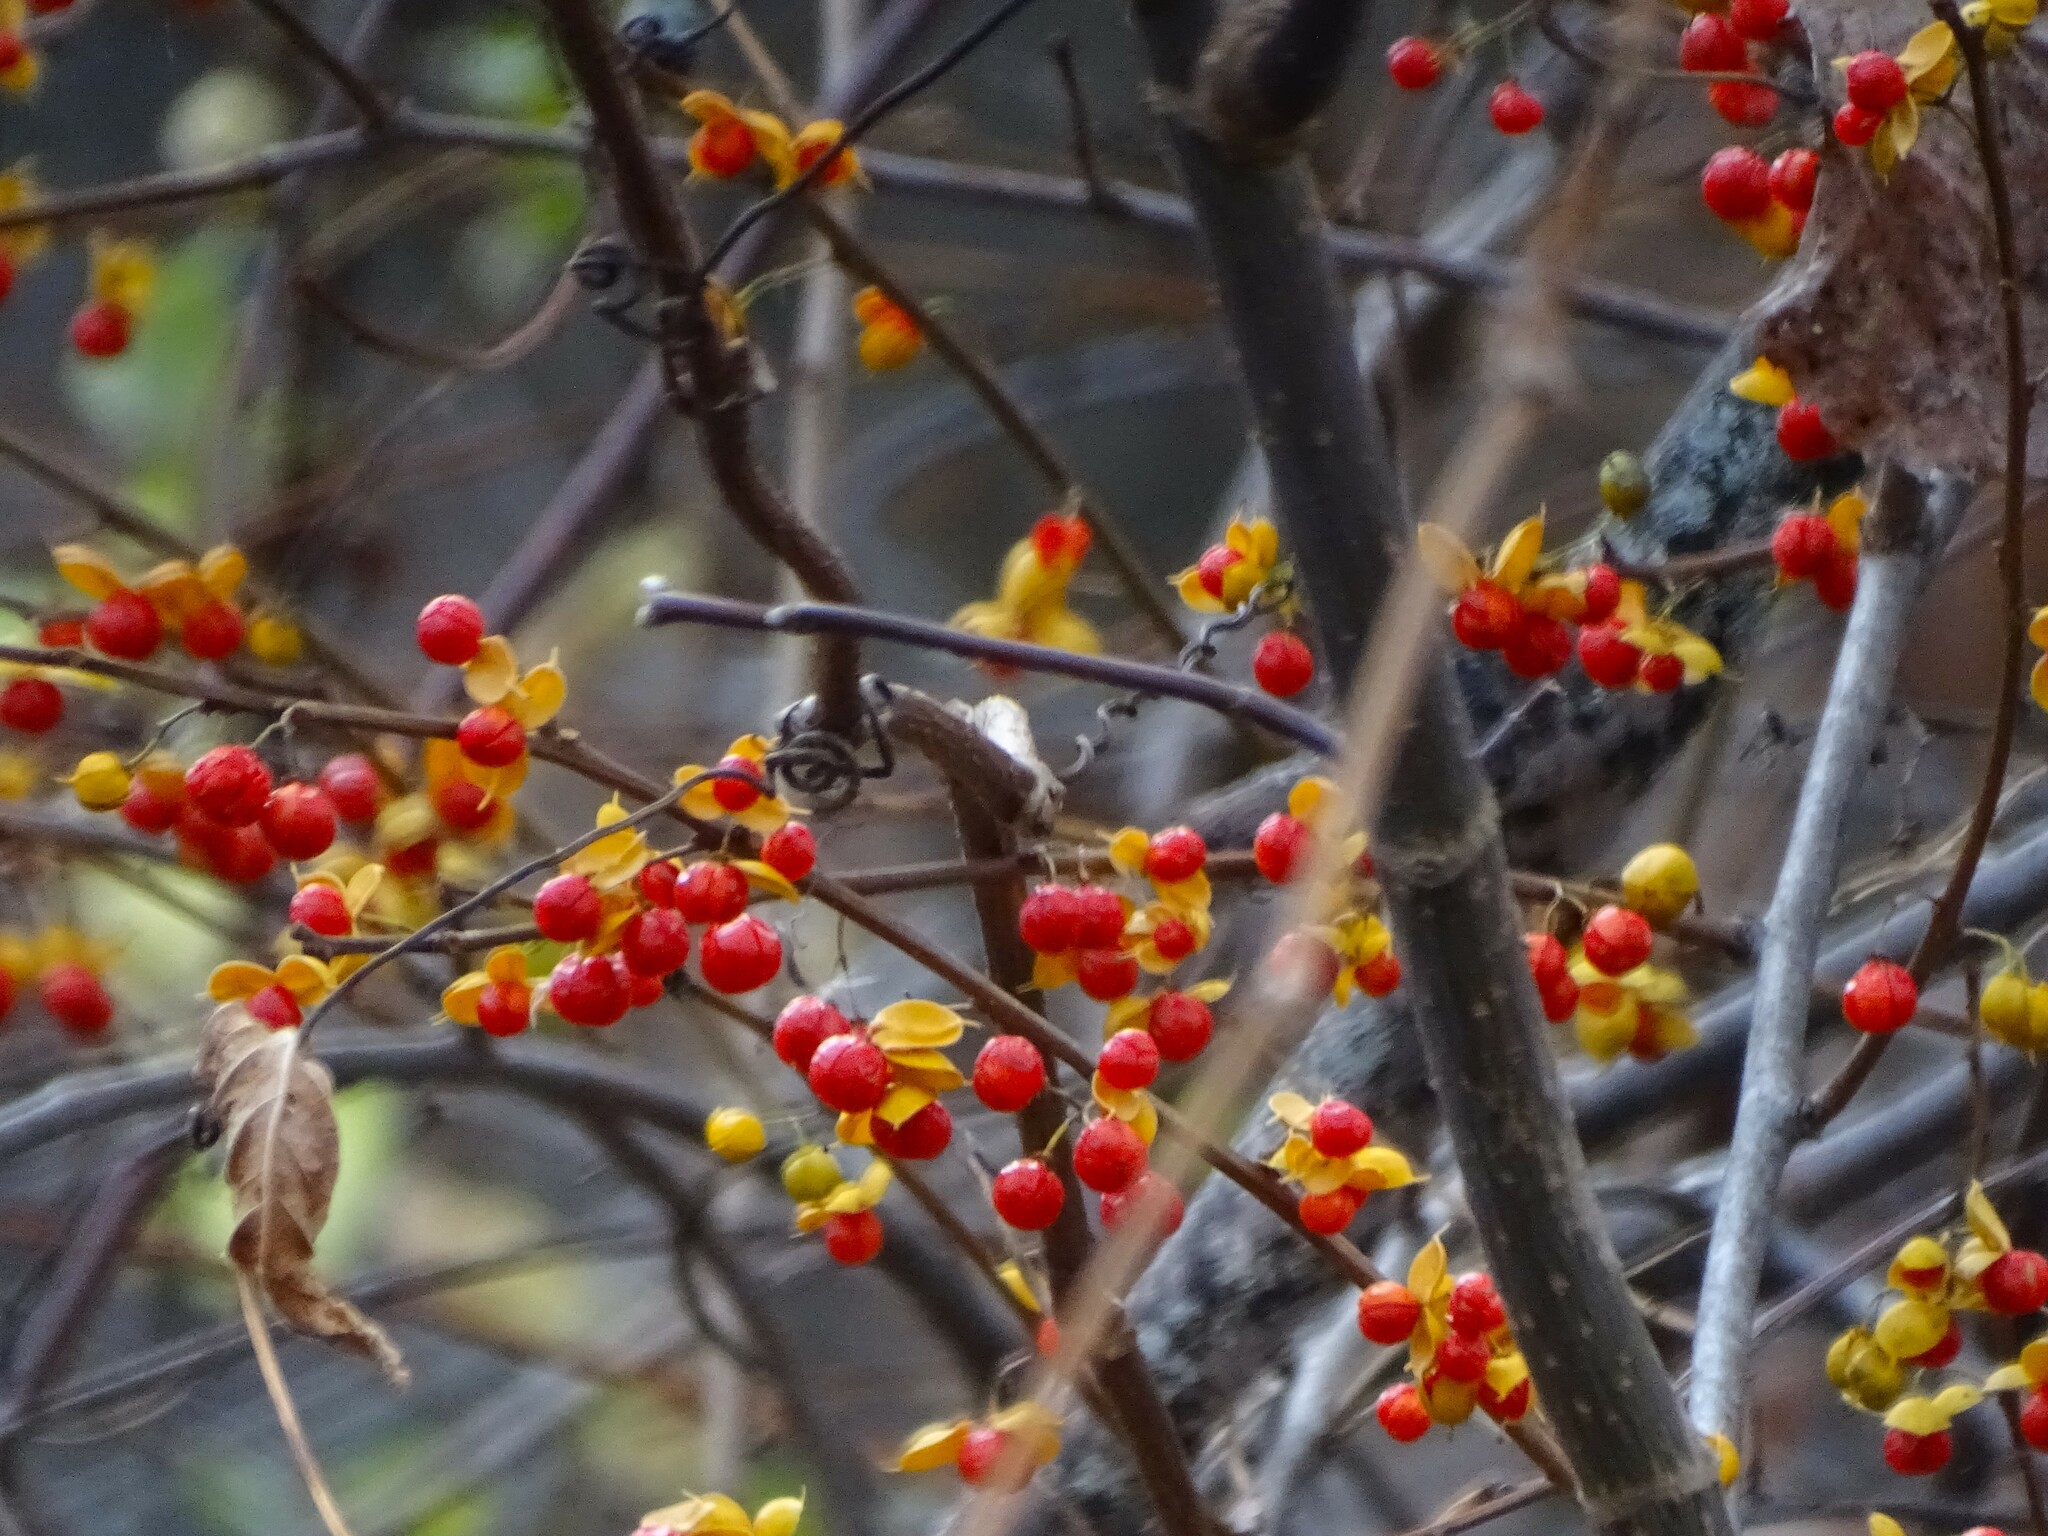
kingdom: Plantae
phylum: Tracheophyta
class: Magnoliopsida
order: Celastrales
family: Celastraceae
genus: Celastrus
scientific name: Celastrus orbiculatus
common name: Oriental bittersweet
